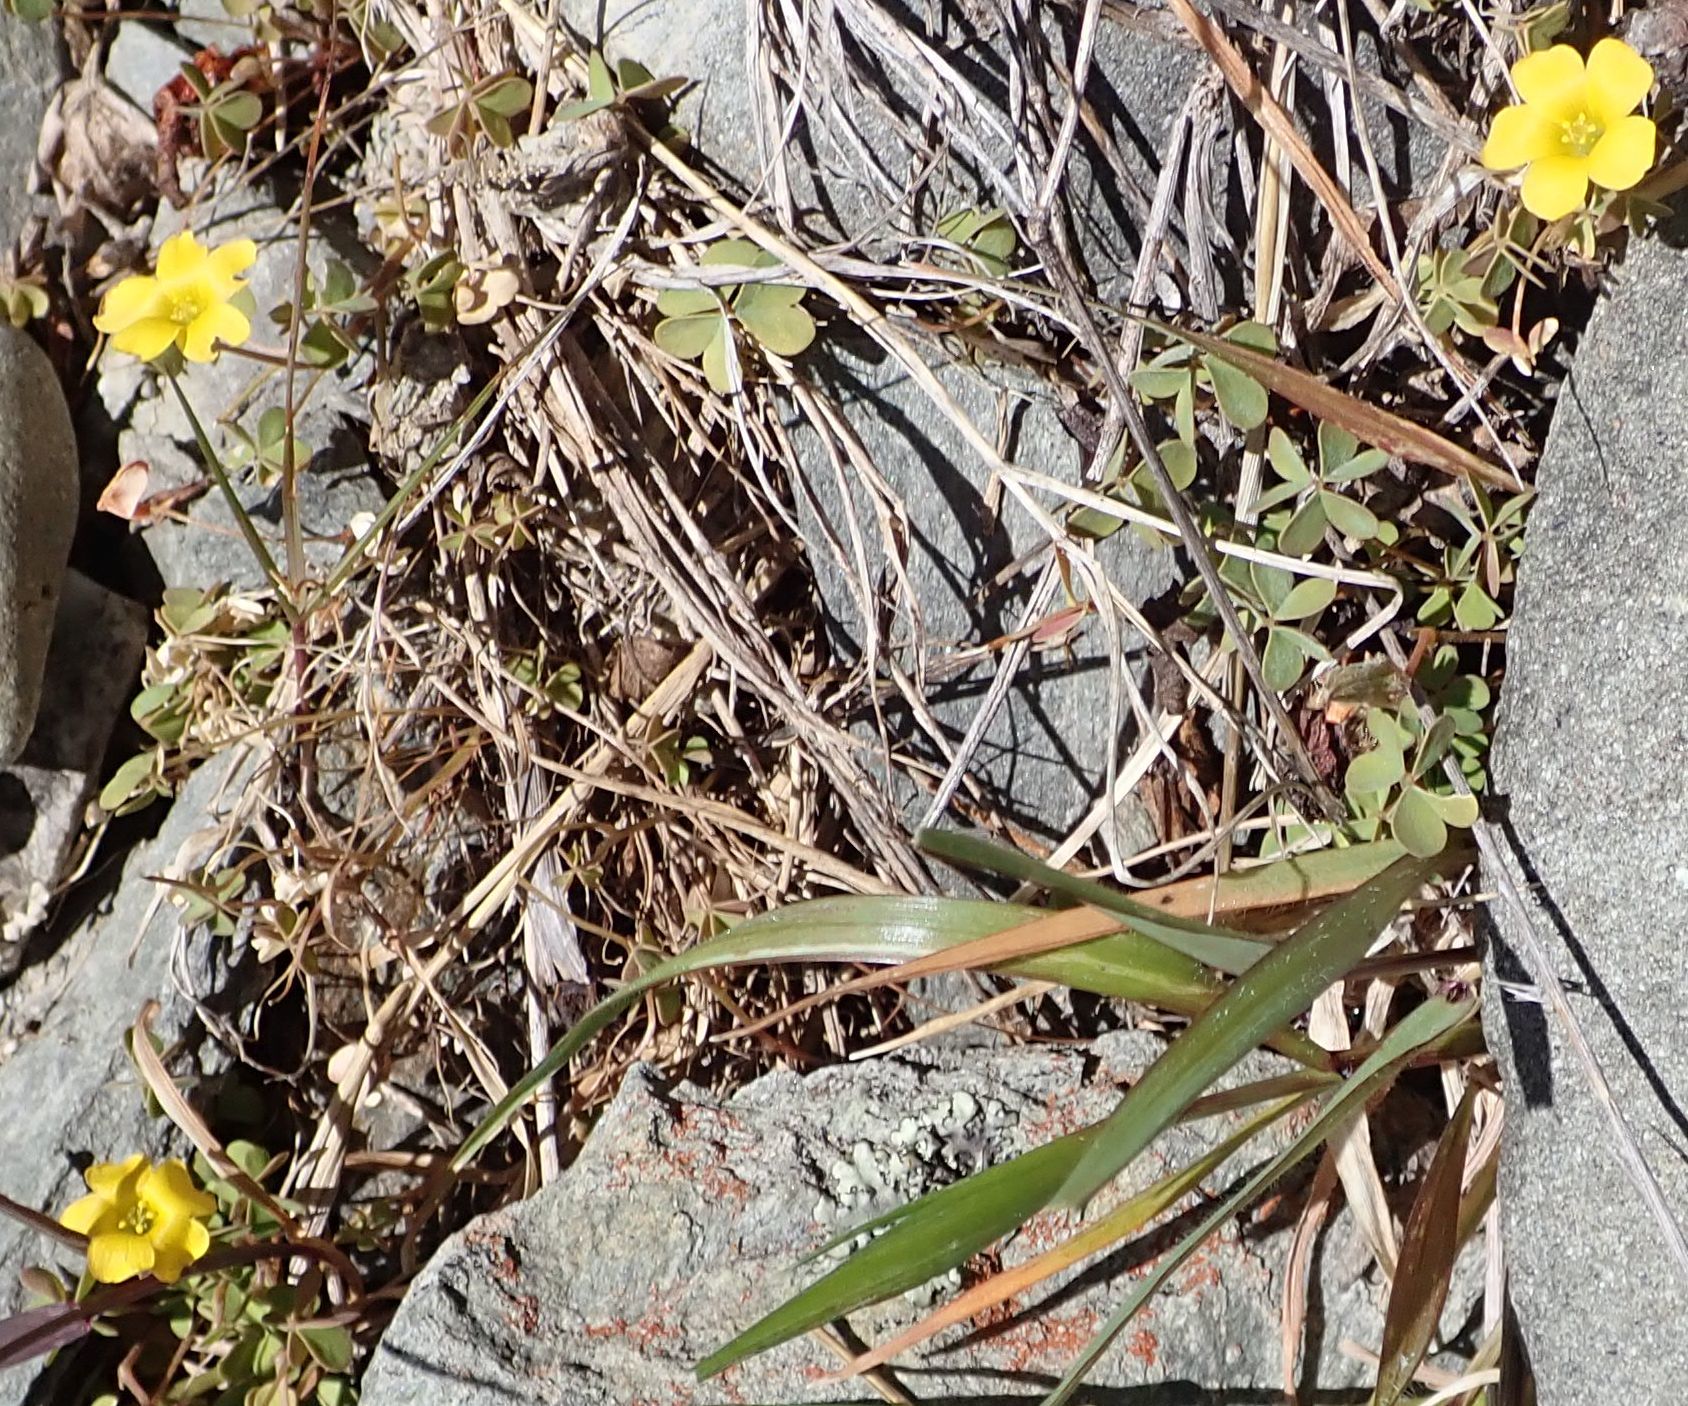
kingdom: Plantae
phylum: Tracheophyta
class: Magnoliopsida
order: Oxalidales
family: Oxalidaceae
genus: Oxalis
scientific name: Oxalis exilis
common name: Least yellow-sorrel
